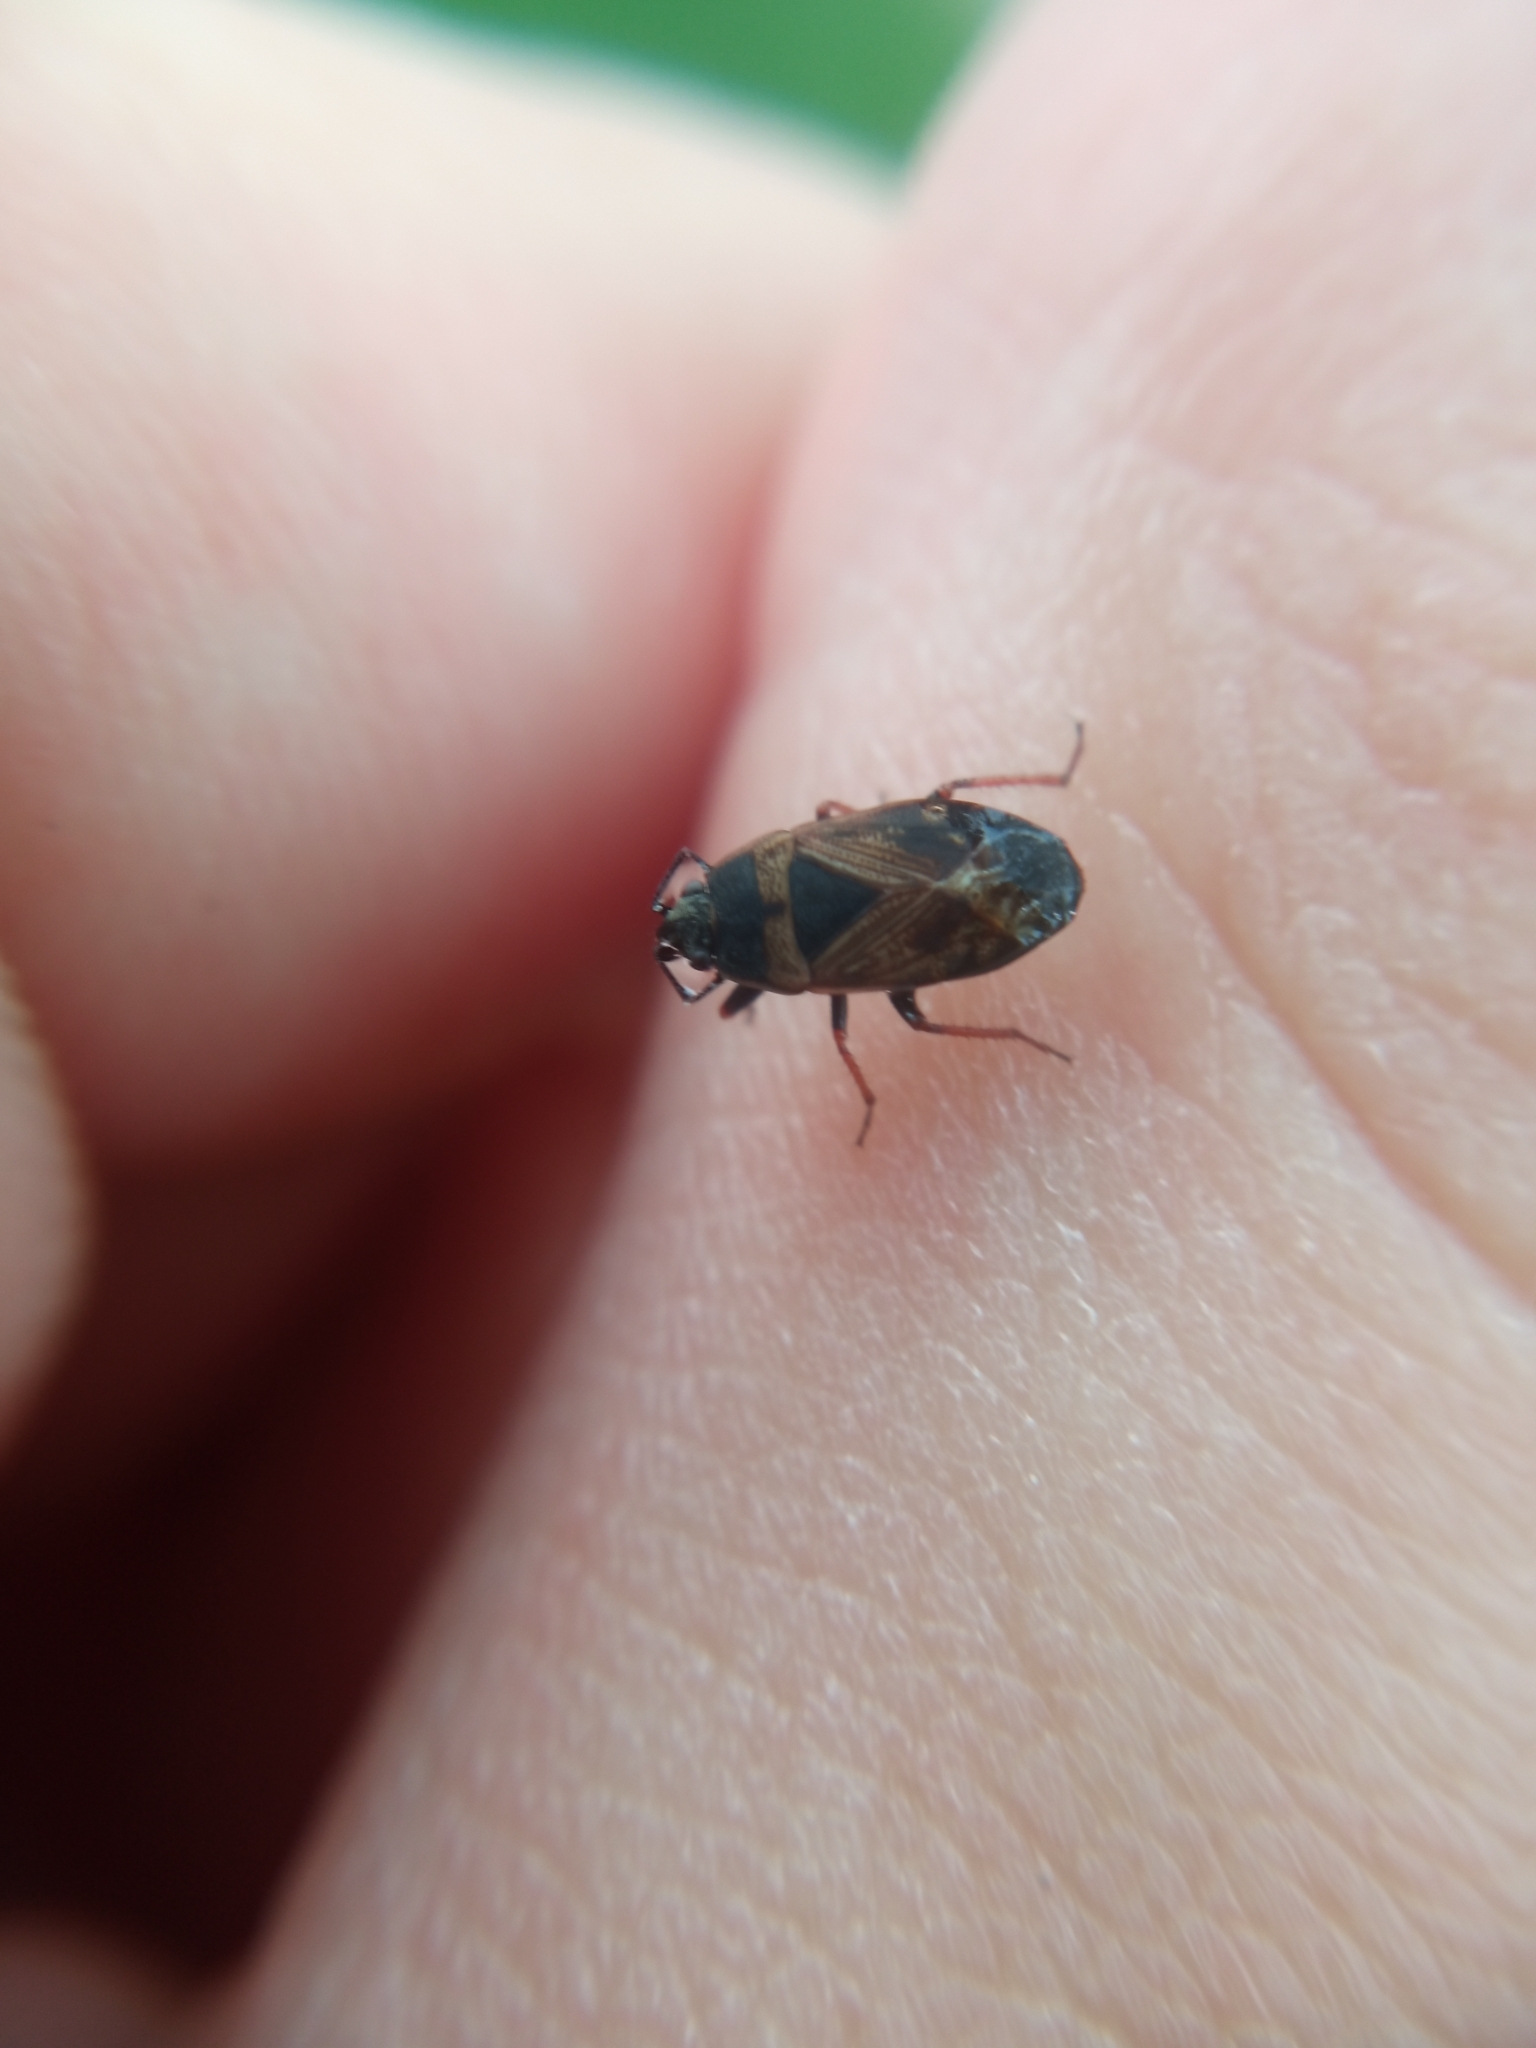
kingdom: Animalia
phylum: Arthropoda
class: Insecta
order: Hemiptera
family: Rhyparochromidae
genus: Trapezonotus
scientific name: Trapezonotus dispar
